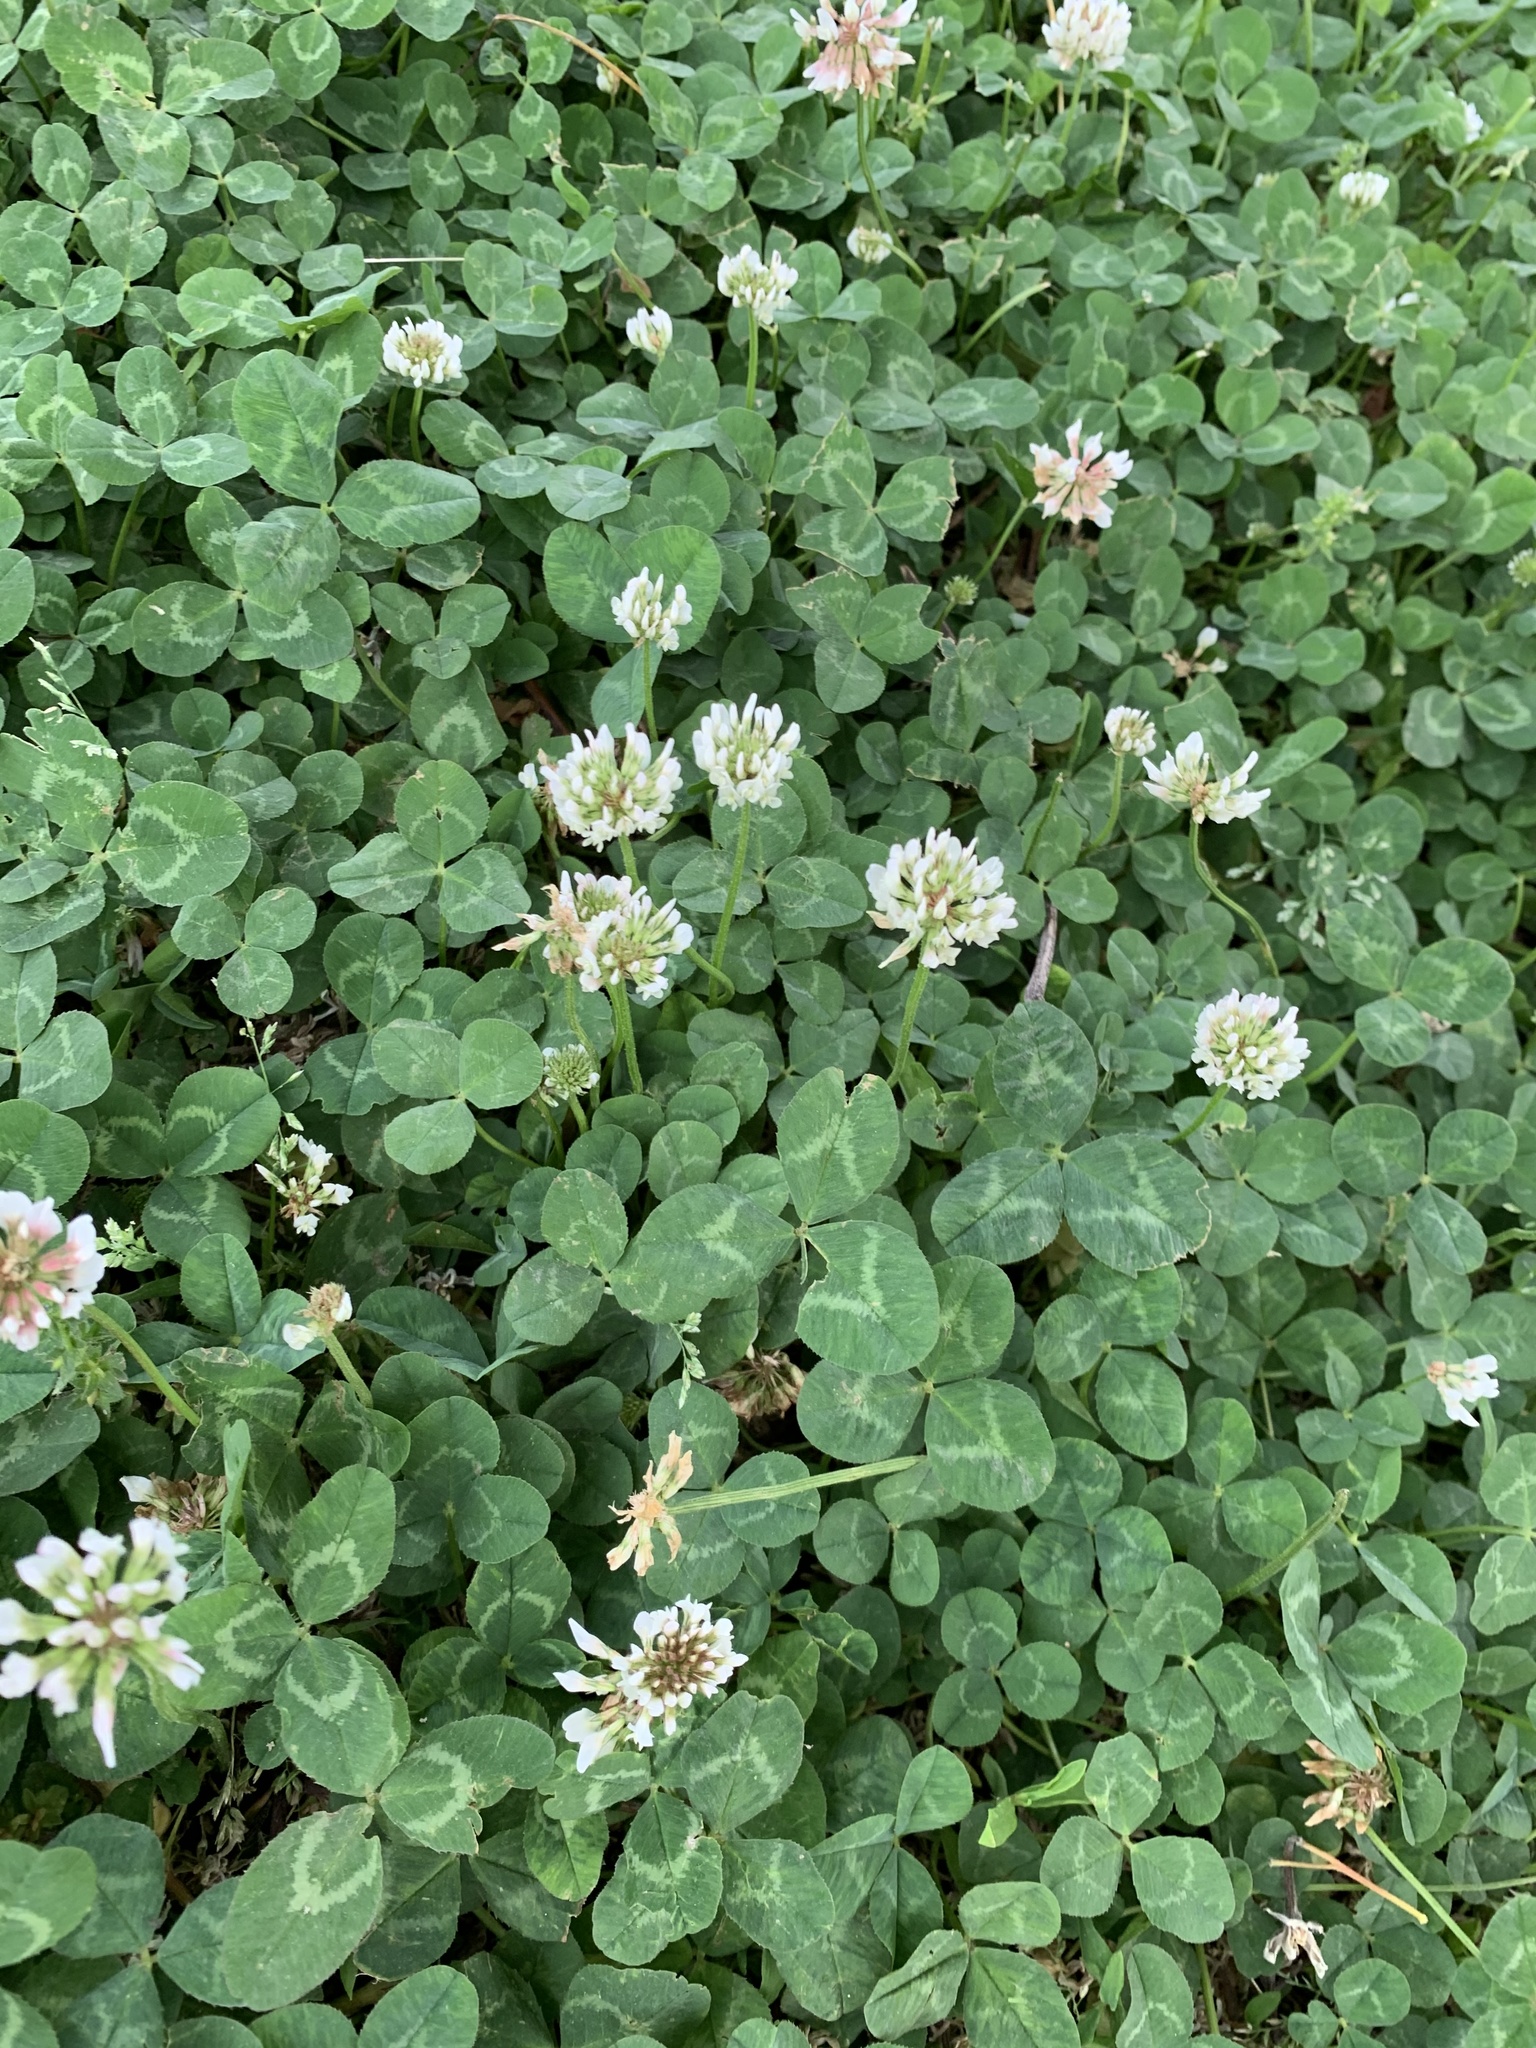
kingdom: Plantae
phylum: Tracheophyta
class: Magnoliopsida
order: Fabales
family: Fabaceae
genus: Trifolium
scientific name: Trifolium repens
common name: White clover
